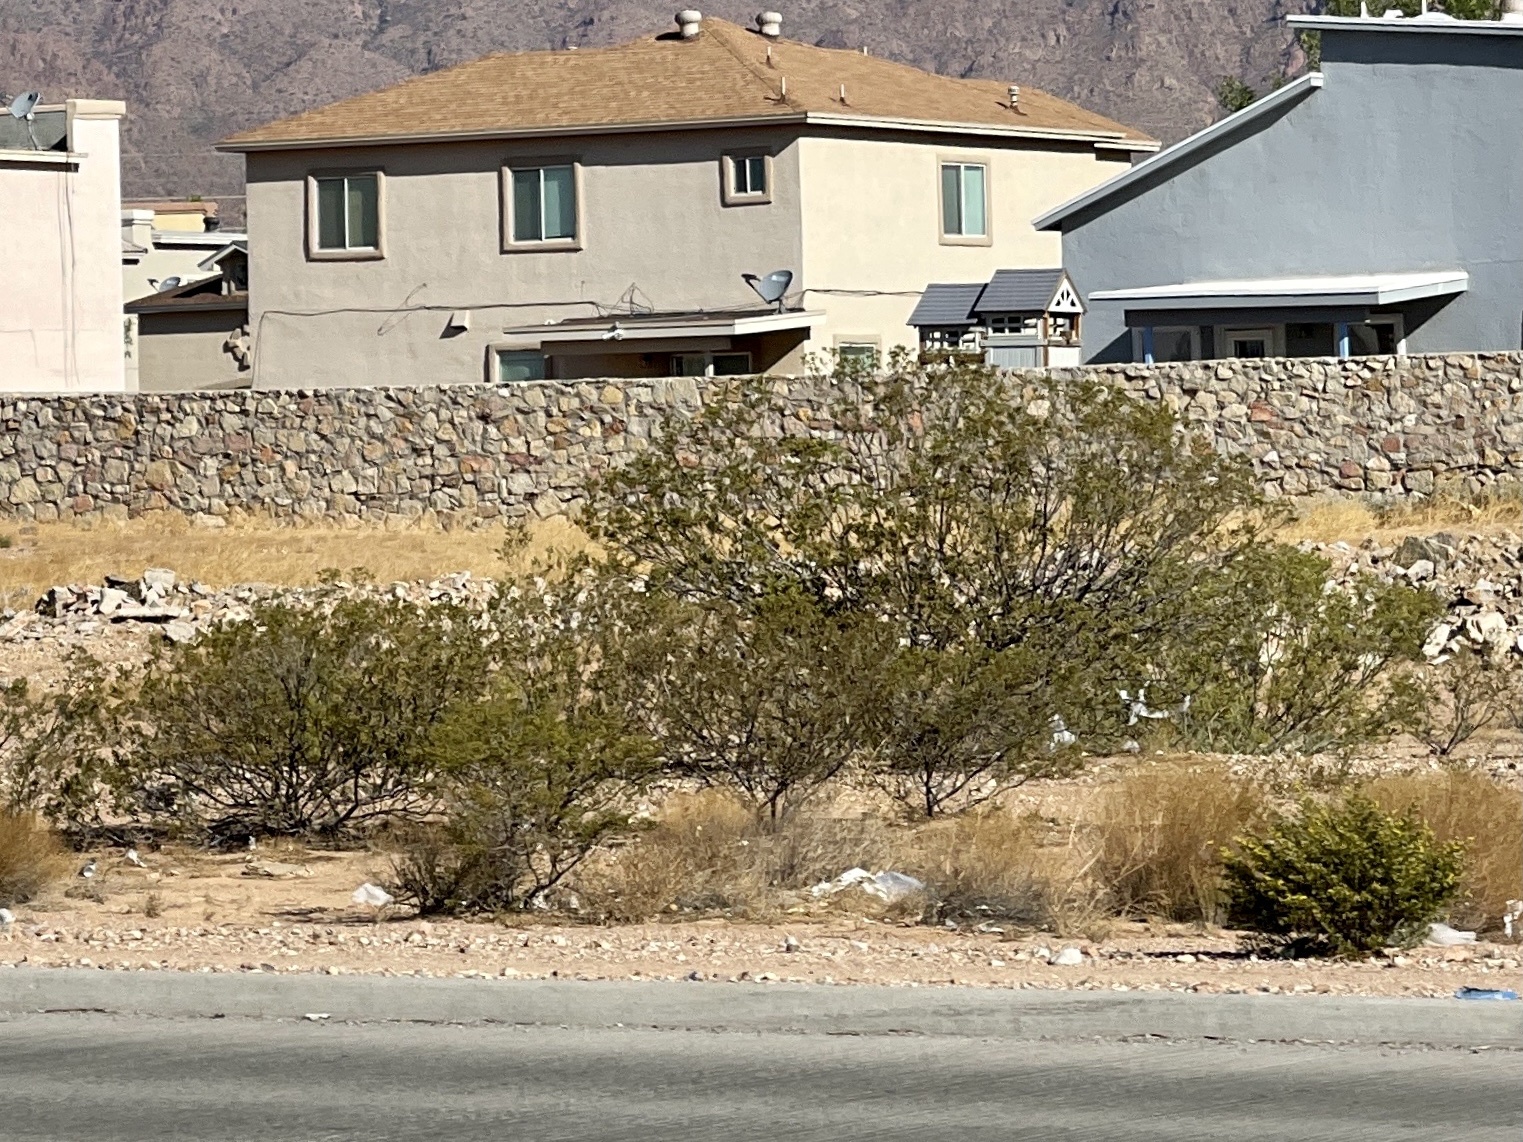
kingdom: Plantae
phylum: Tracheophyta
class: Magnoliopsida
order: Zygophyllales
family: Zygophyllaceae
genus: Larrea
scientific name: Larrea tridentata
